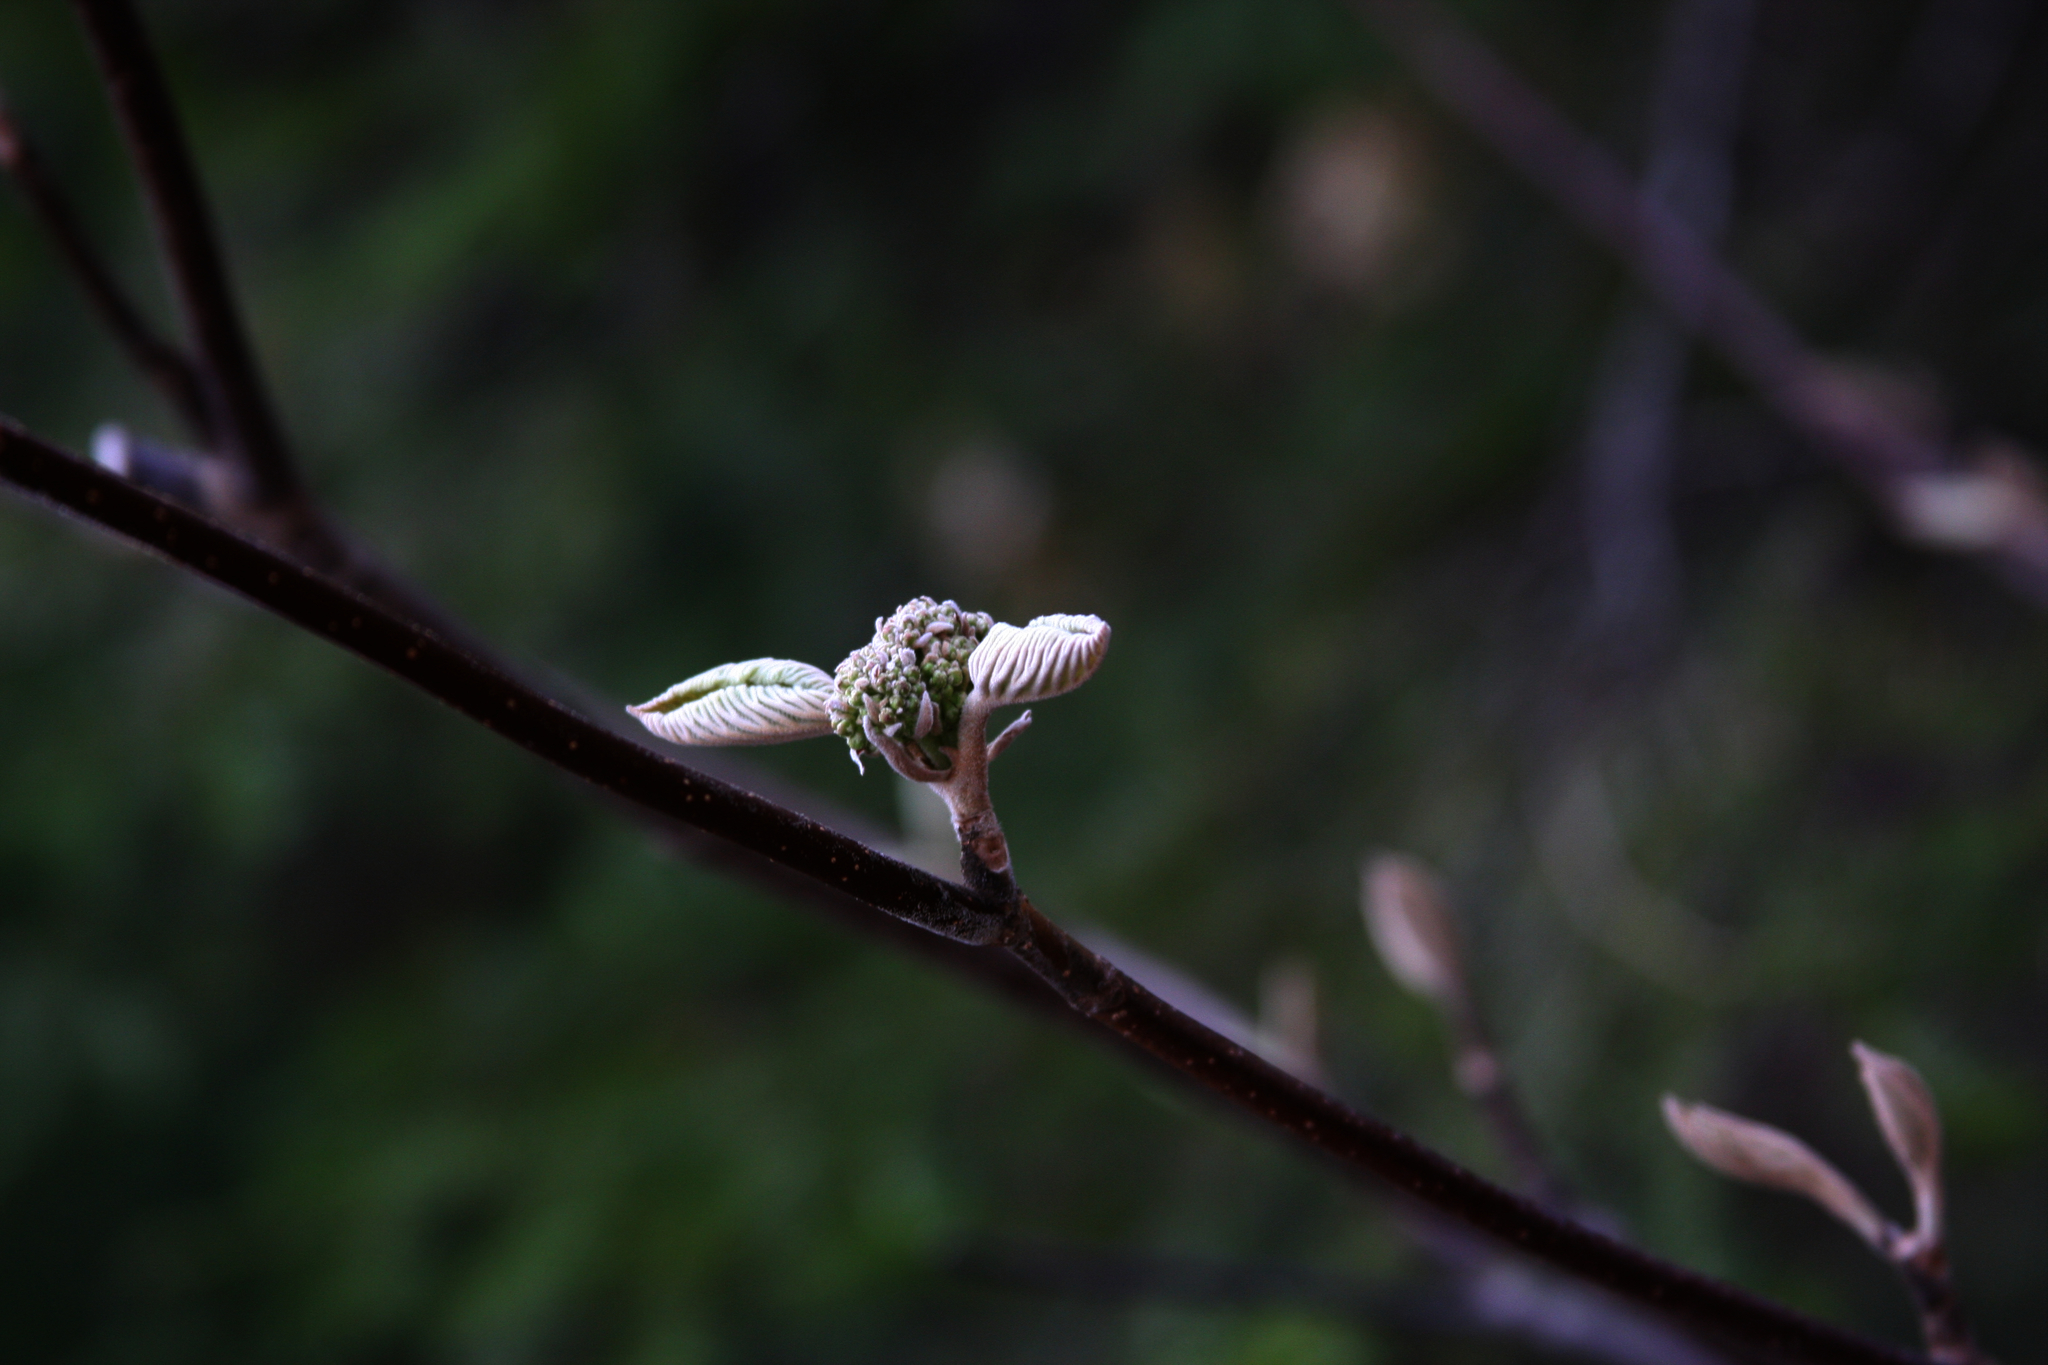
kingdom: Plantae
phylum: Tracheophyta
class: Magnoliopsida
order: Dipsacales
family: Viburnaceae
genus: Viburnum
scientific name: Viburnum lantanoides
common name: Hobblebush
